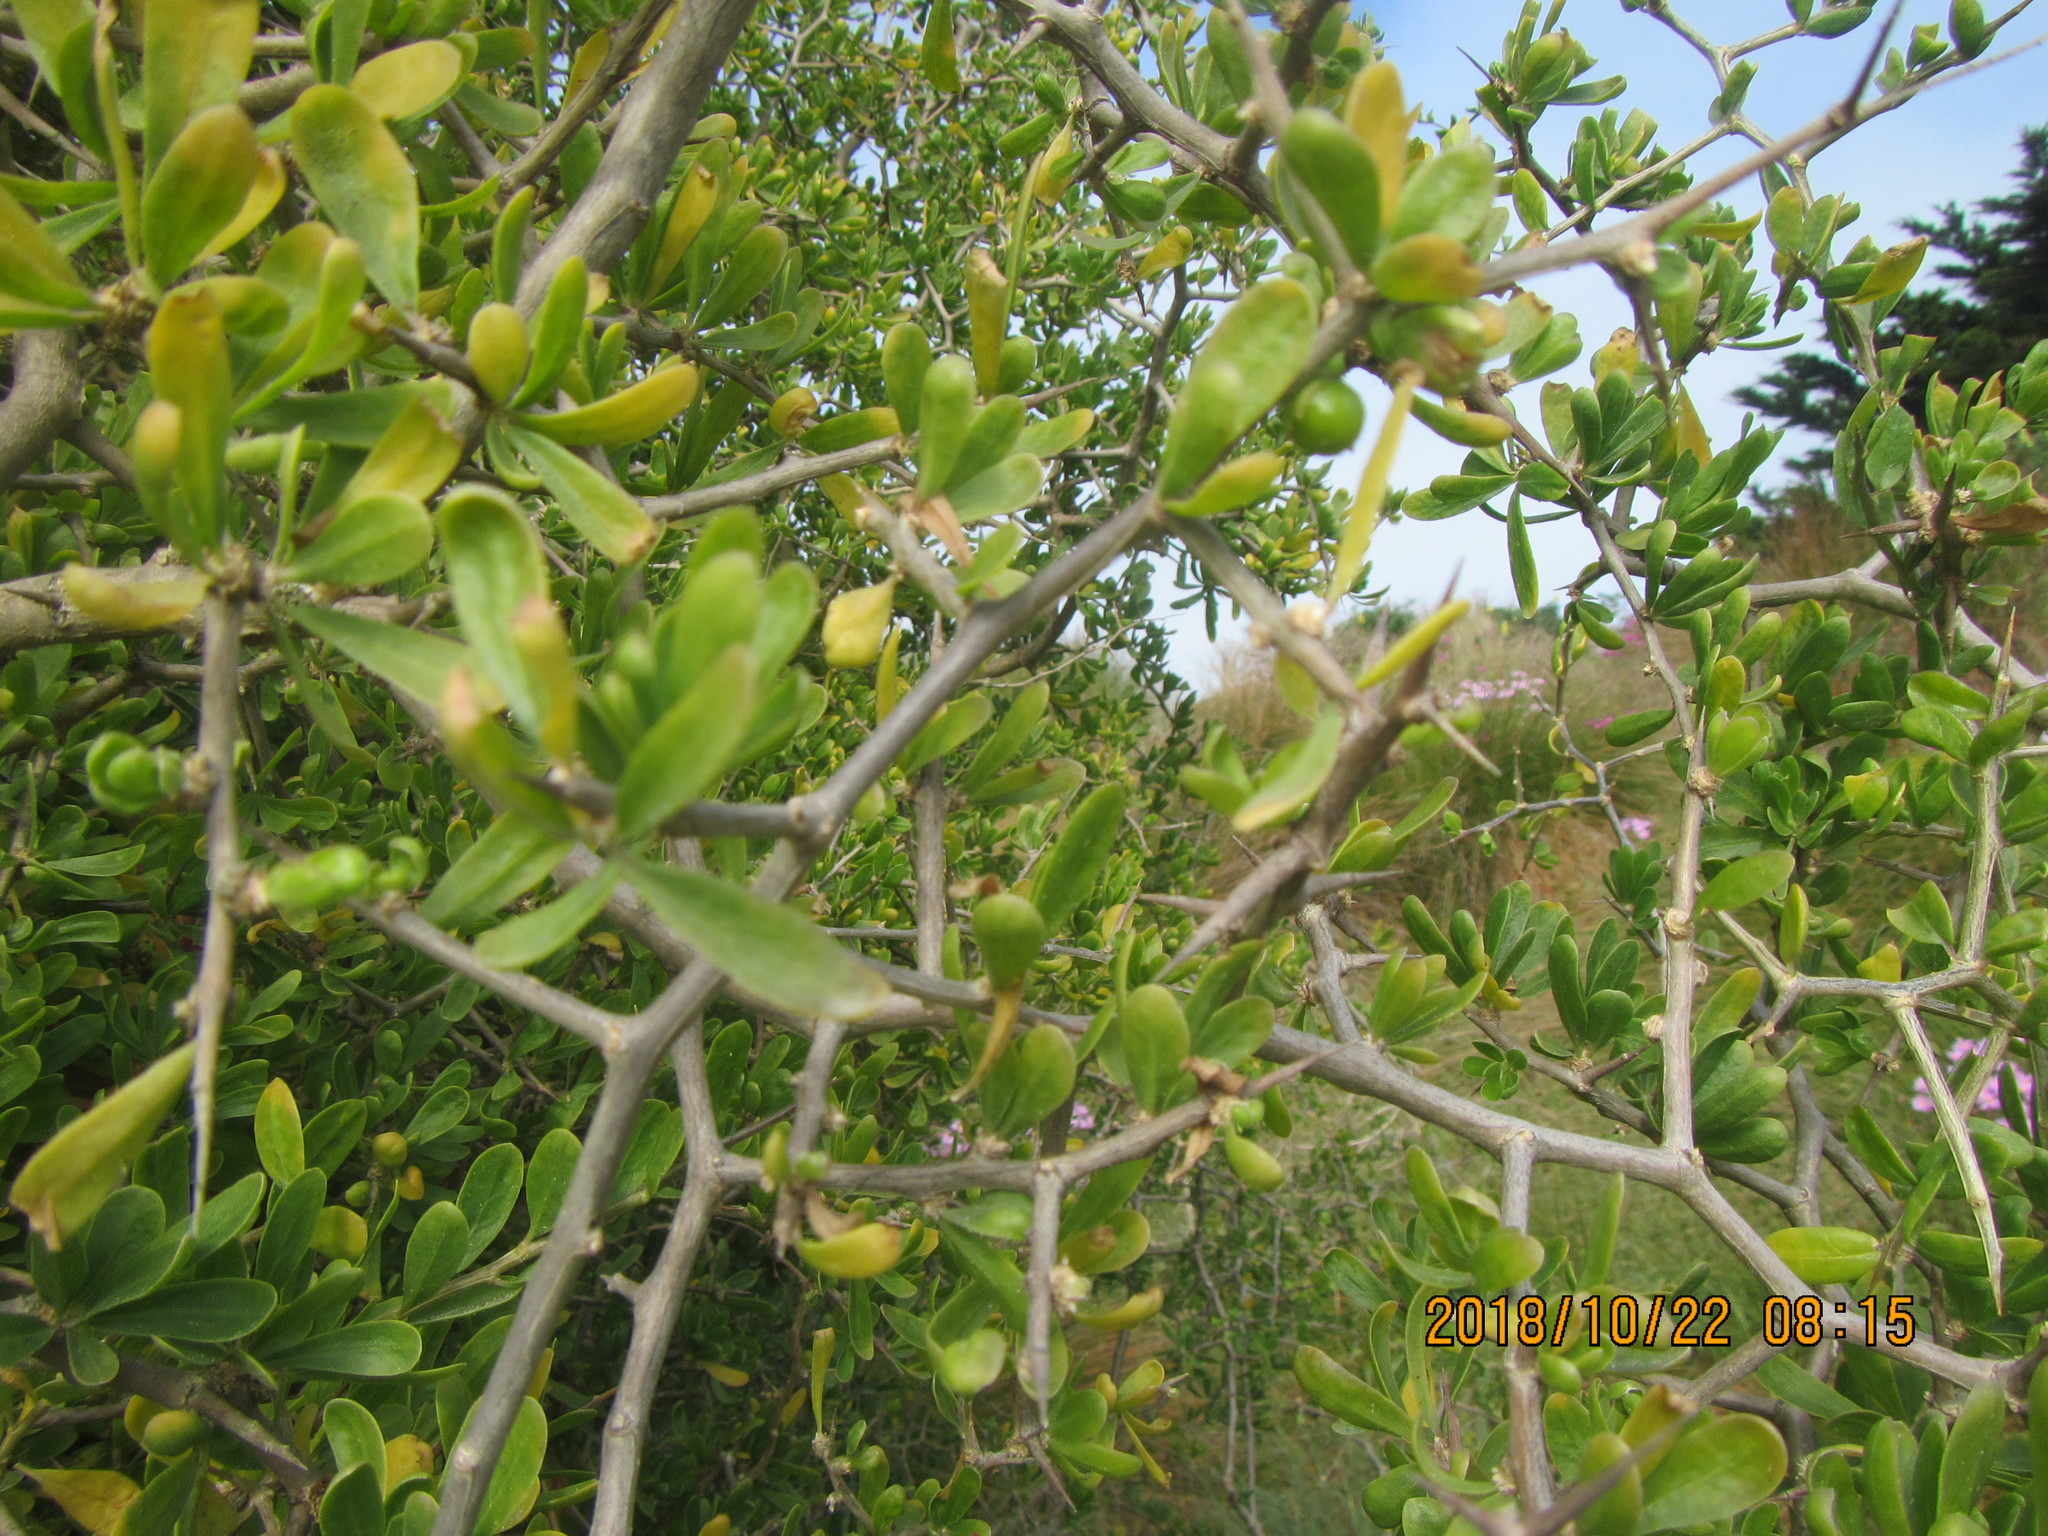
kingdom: Plantae
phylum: Tracheophyta
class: Magnoliopsida
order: Solanales
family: Solanaceae
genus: Lycium
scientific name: Lycium ferocissimum
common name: African boxthorn
